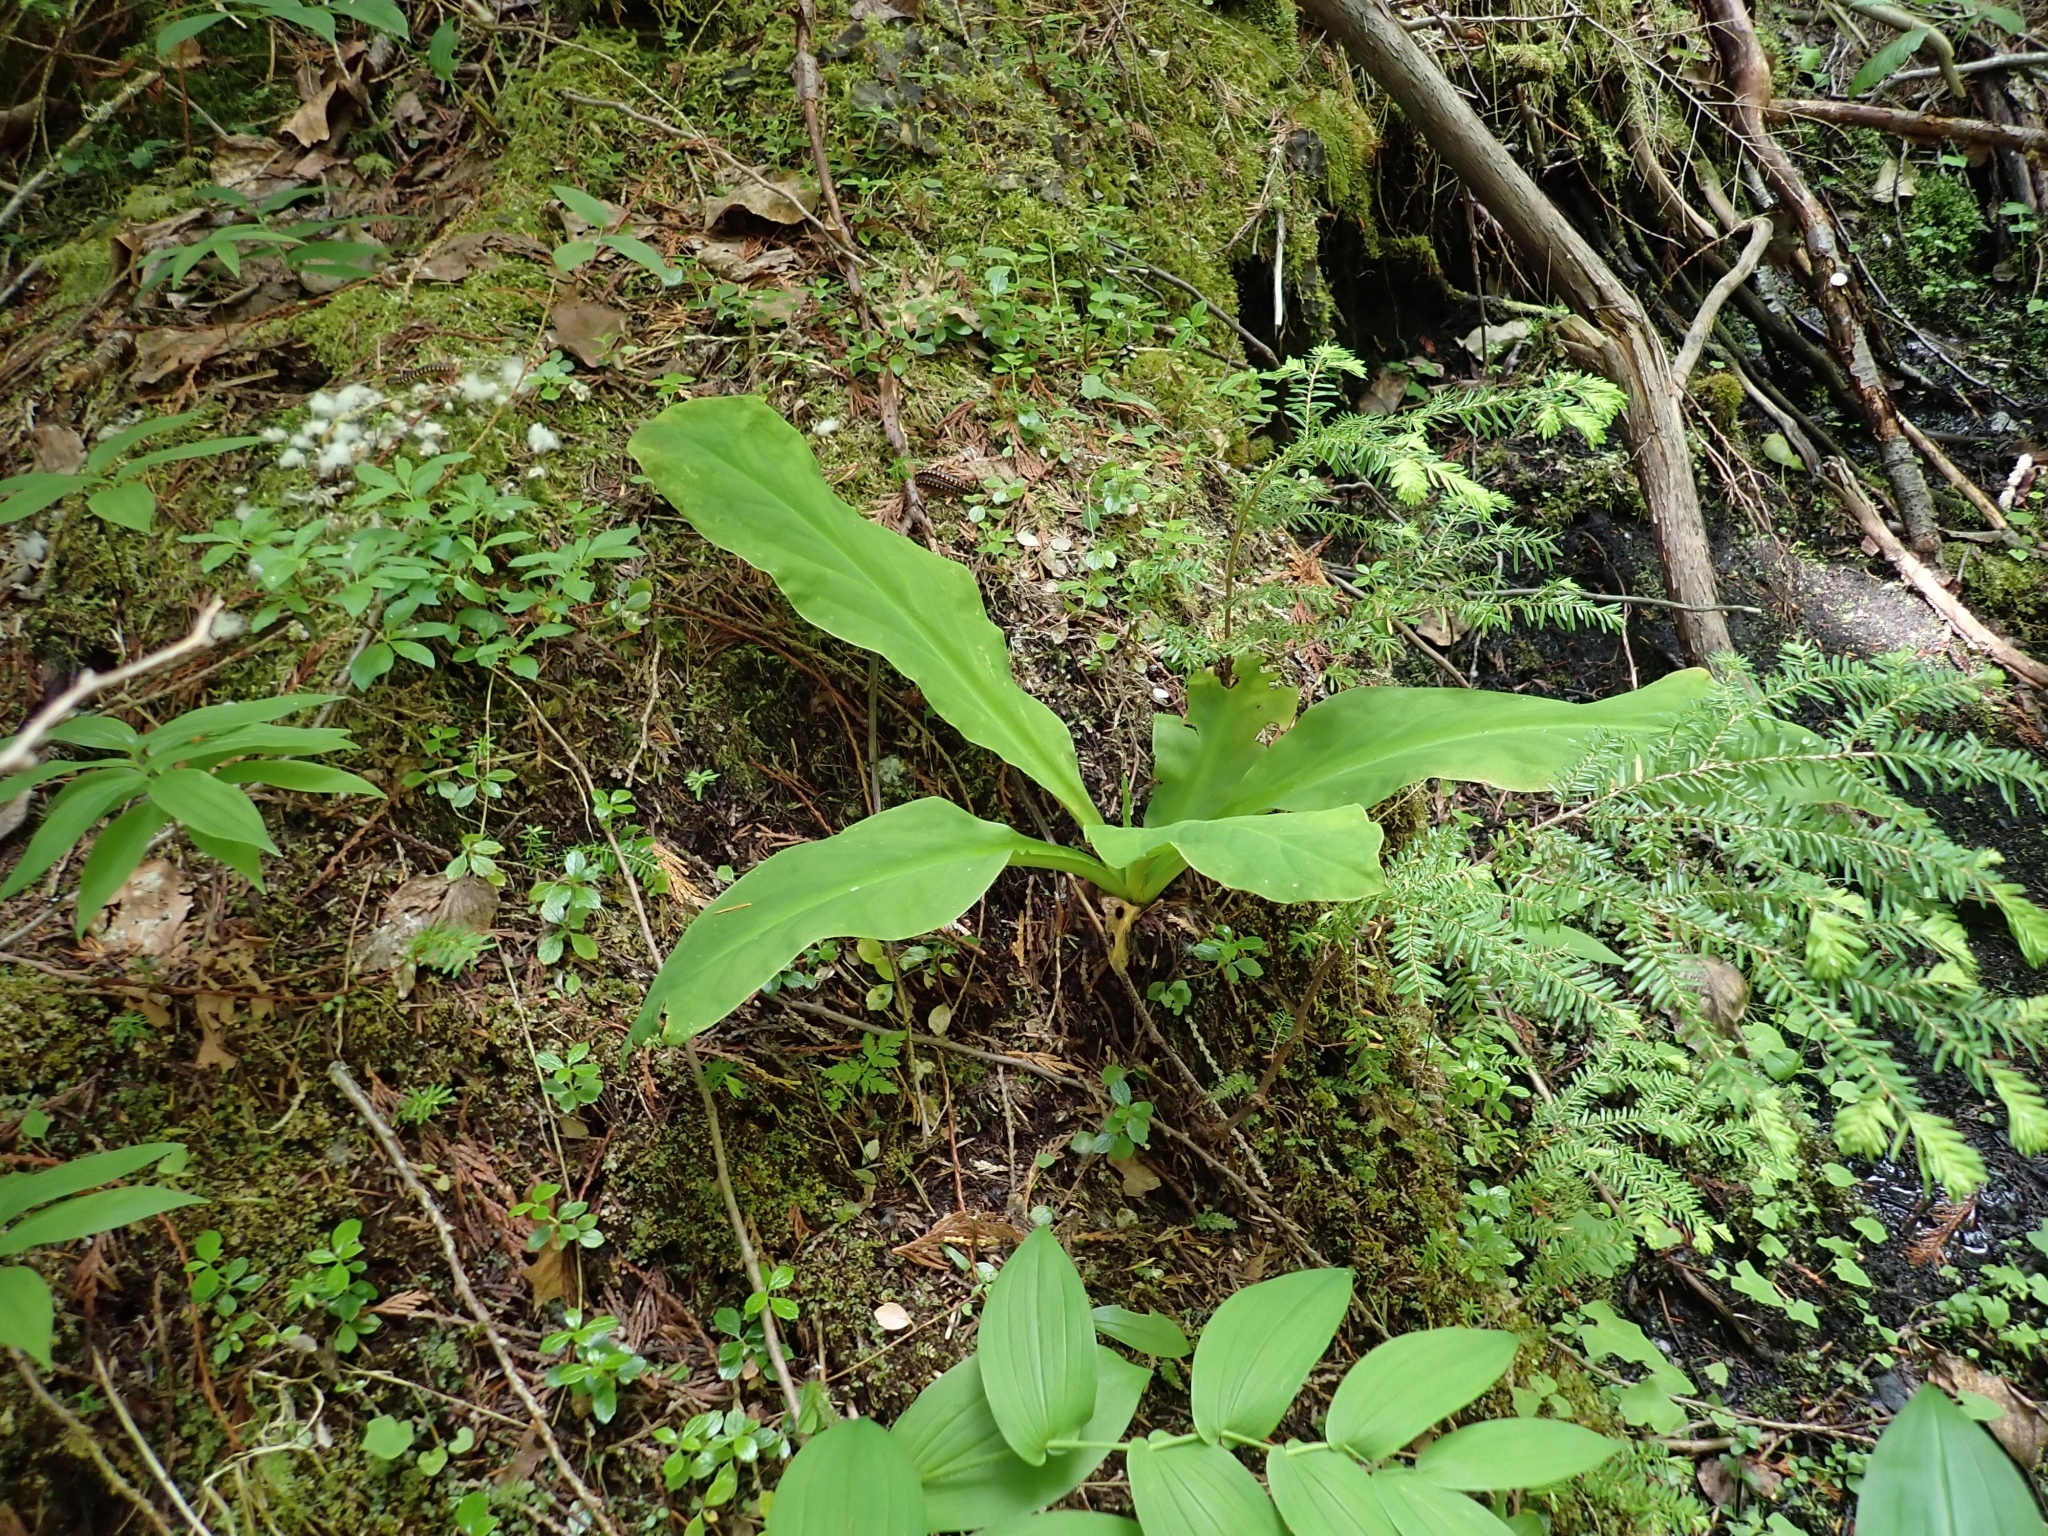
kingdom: Plantae
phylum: Tracheophyta
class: Liliopsida
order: Alismatales
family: Araceae
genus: Lysichiton
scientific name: Lysichiton americanus
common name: American skunk cabbage
